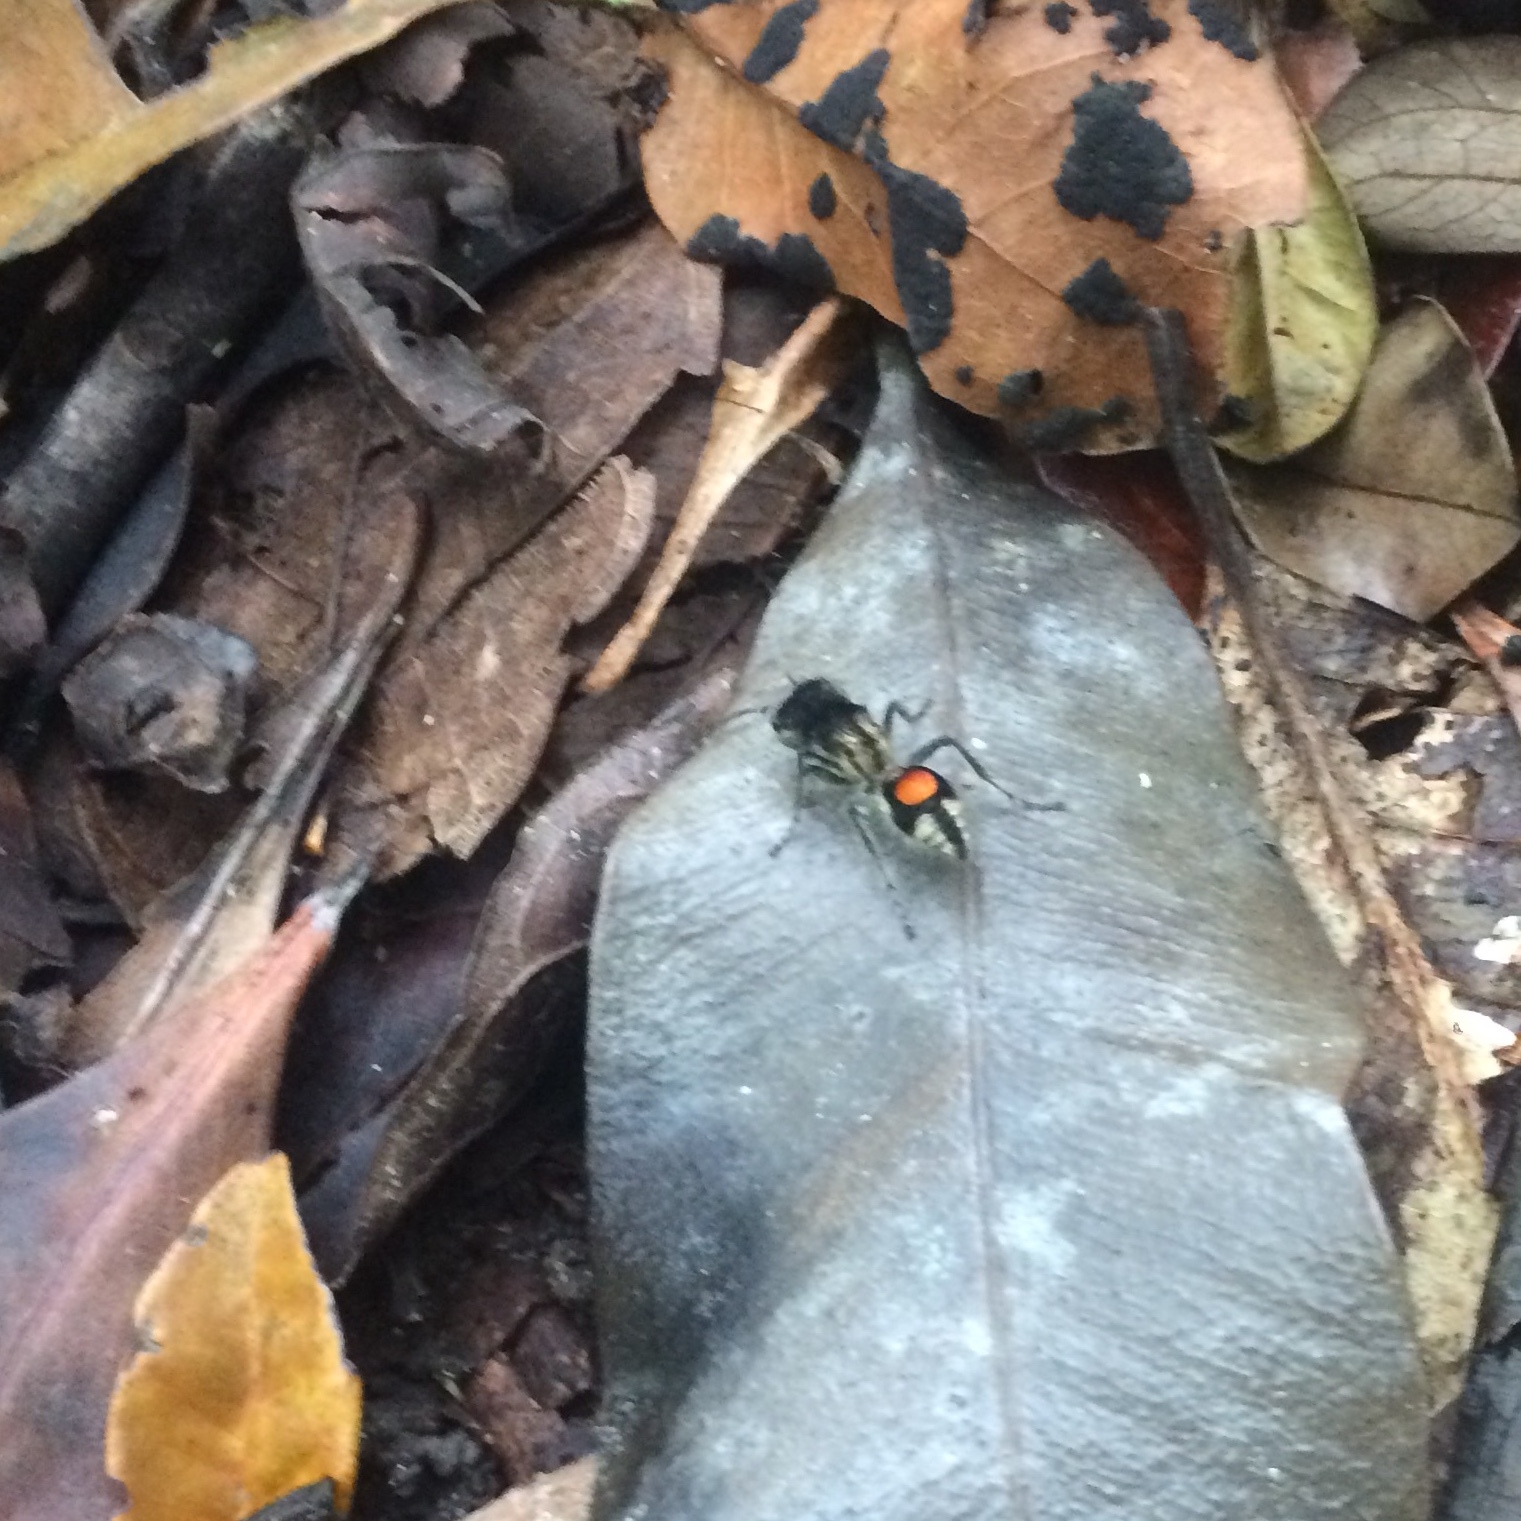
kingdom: Animalia
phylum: Arthropoda
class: Insecta
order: Hymenoptera
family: Mutillidae
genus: Hoplocrates
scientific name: Hoplocrates
